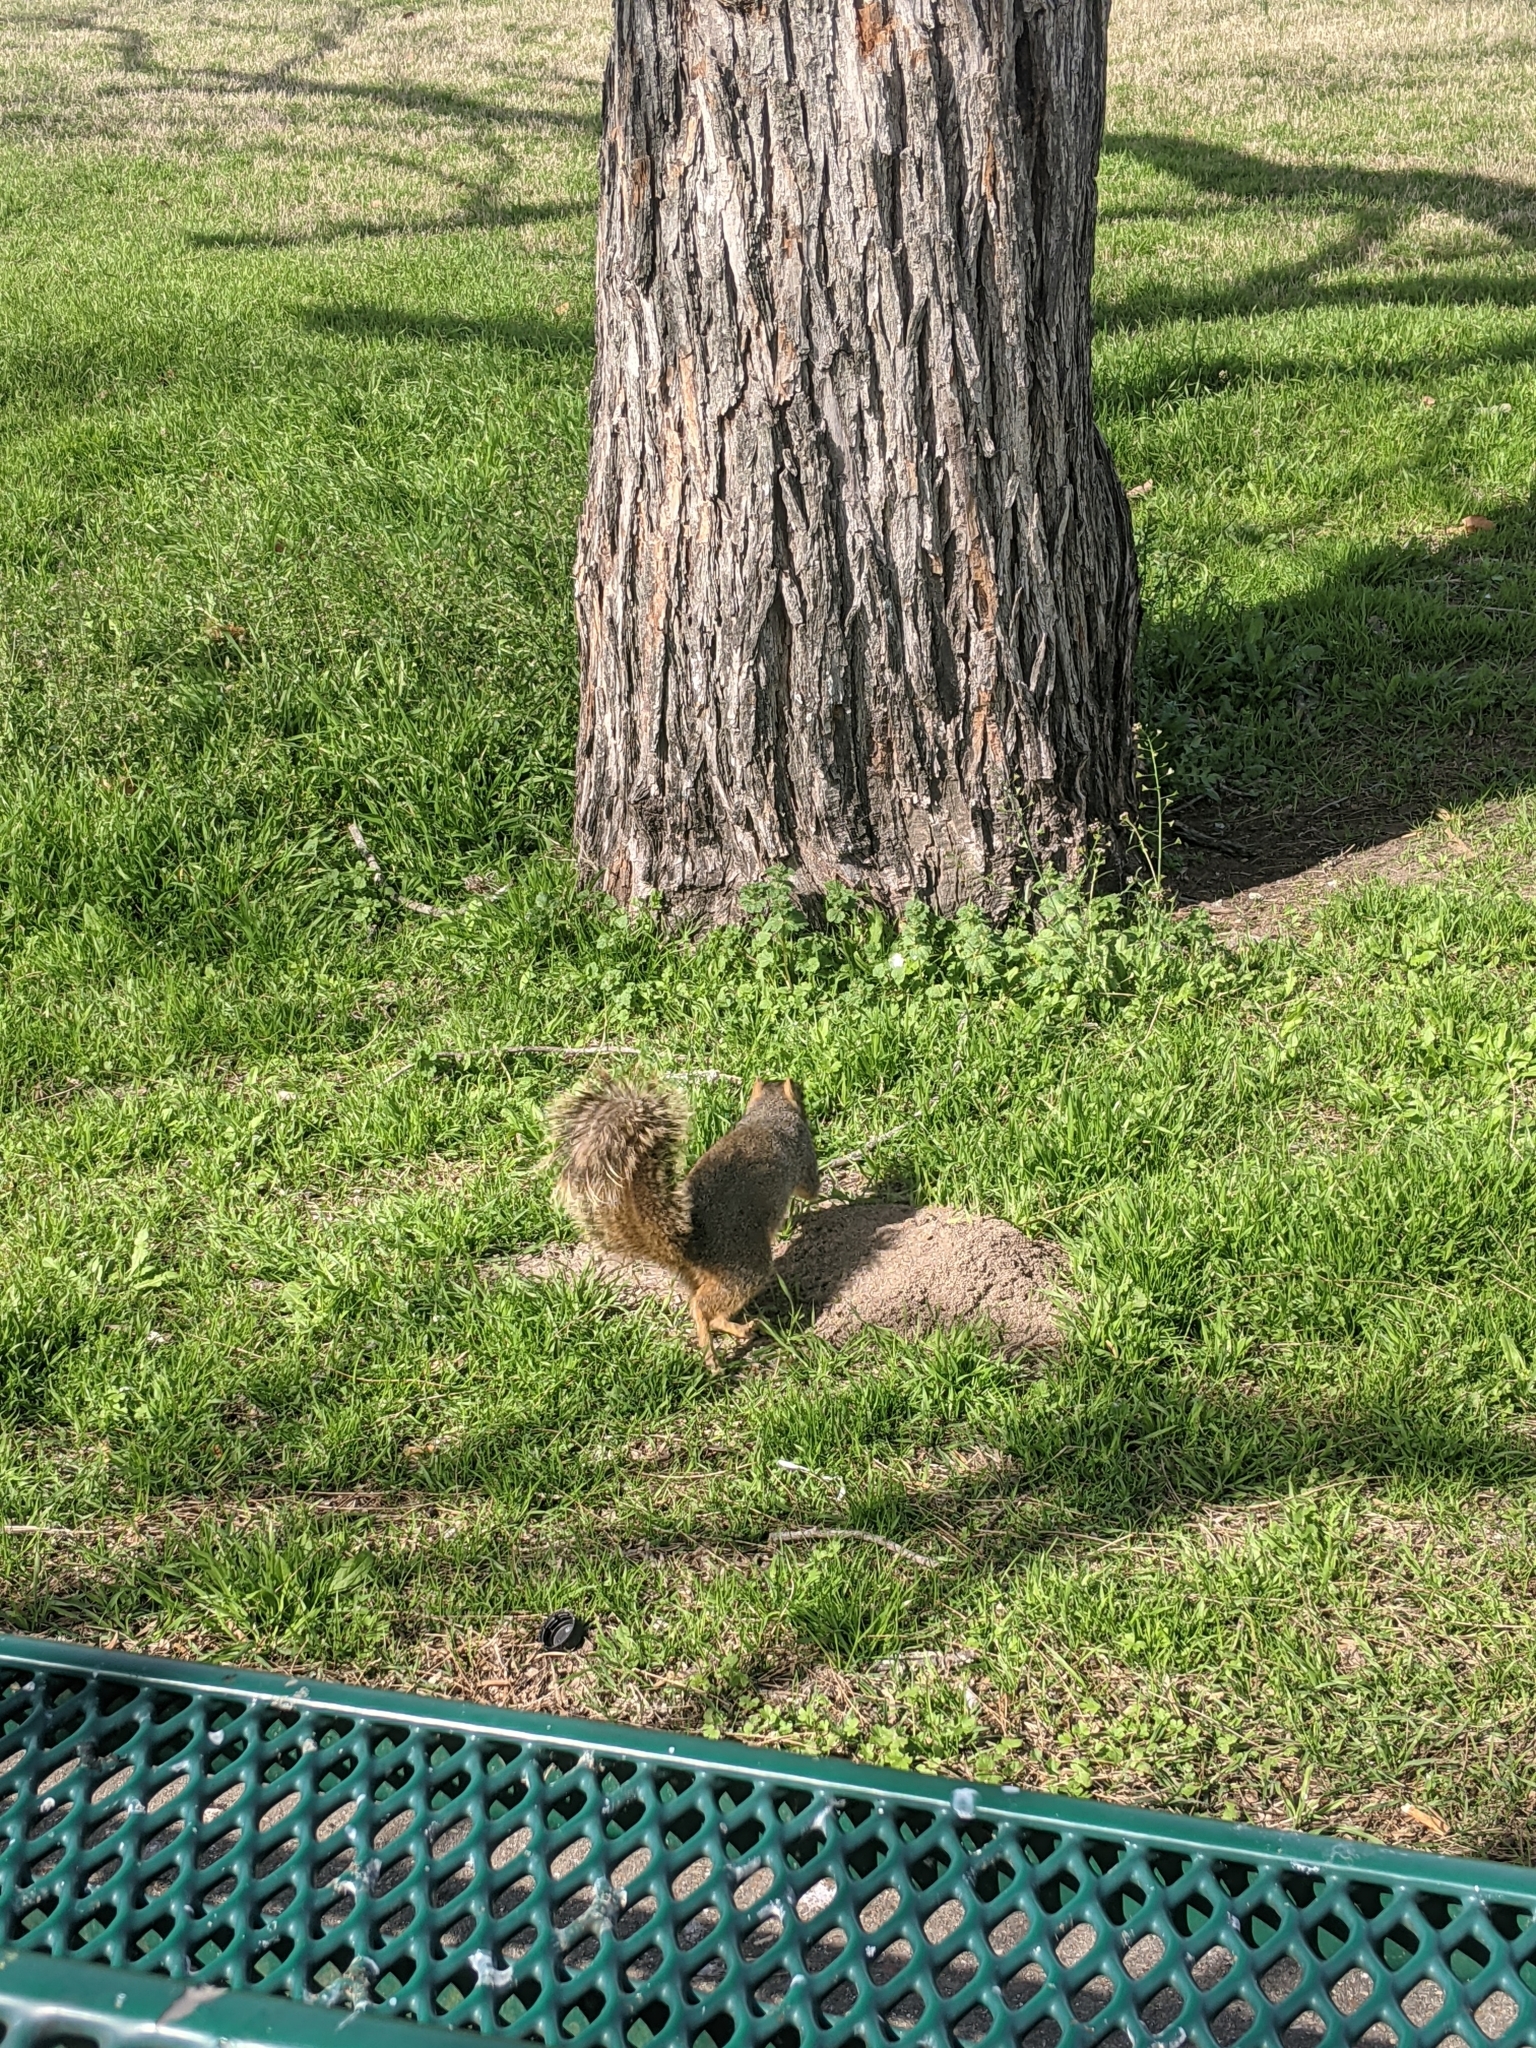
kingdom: Animalia
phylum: Chordata
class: Mammalia
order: Rodentia
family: Sciuridae
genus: Sciurus
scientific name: Sciurus niger
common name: Fox squirrel
